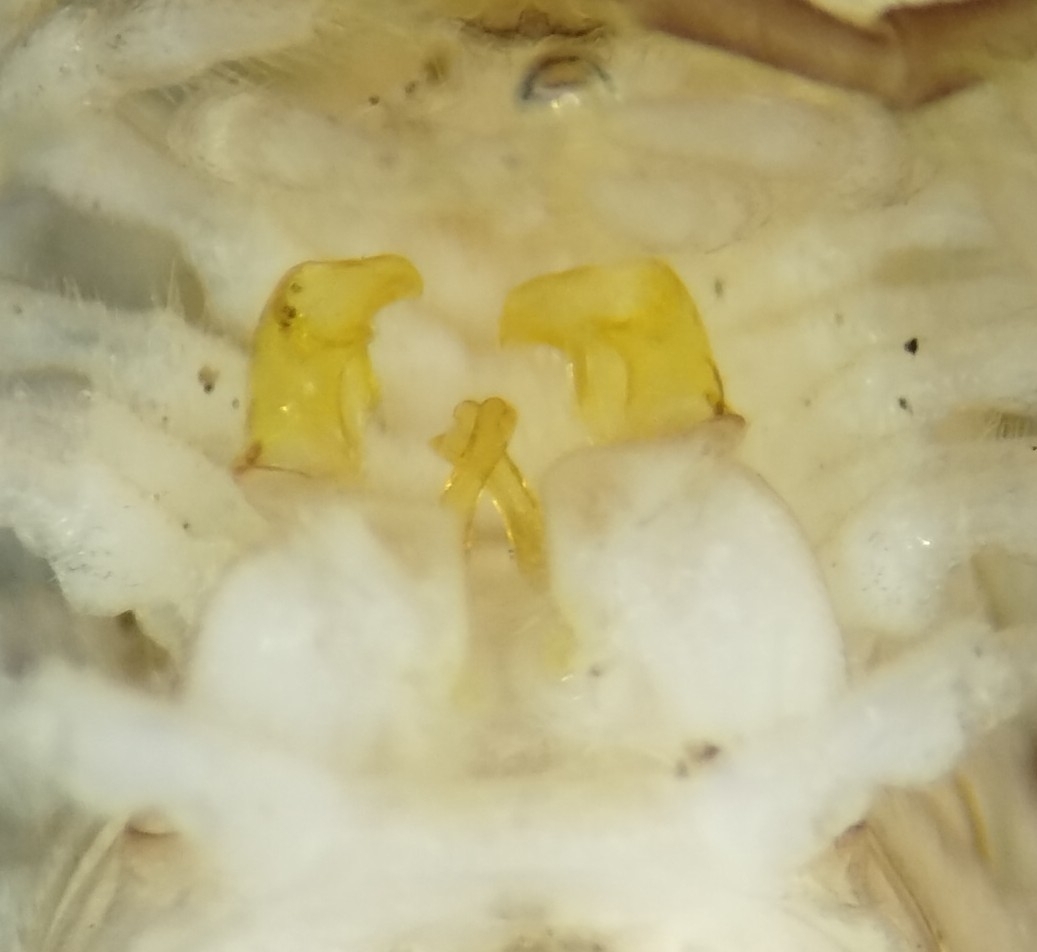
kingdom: Animalia
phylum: Arthropoda
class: Diplopoda
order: Polydesmida
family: Xystodesmidae
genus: Caralinda
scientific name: Caralinda beatrix
